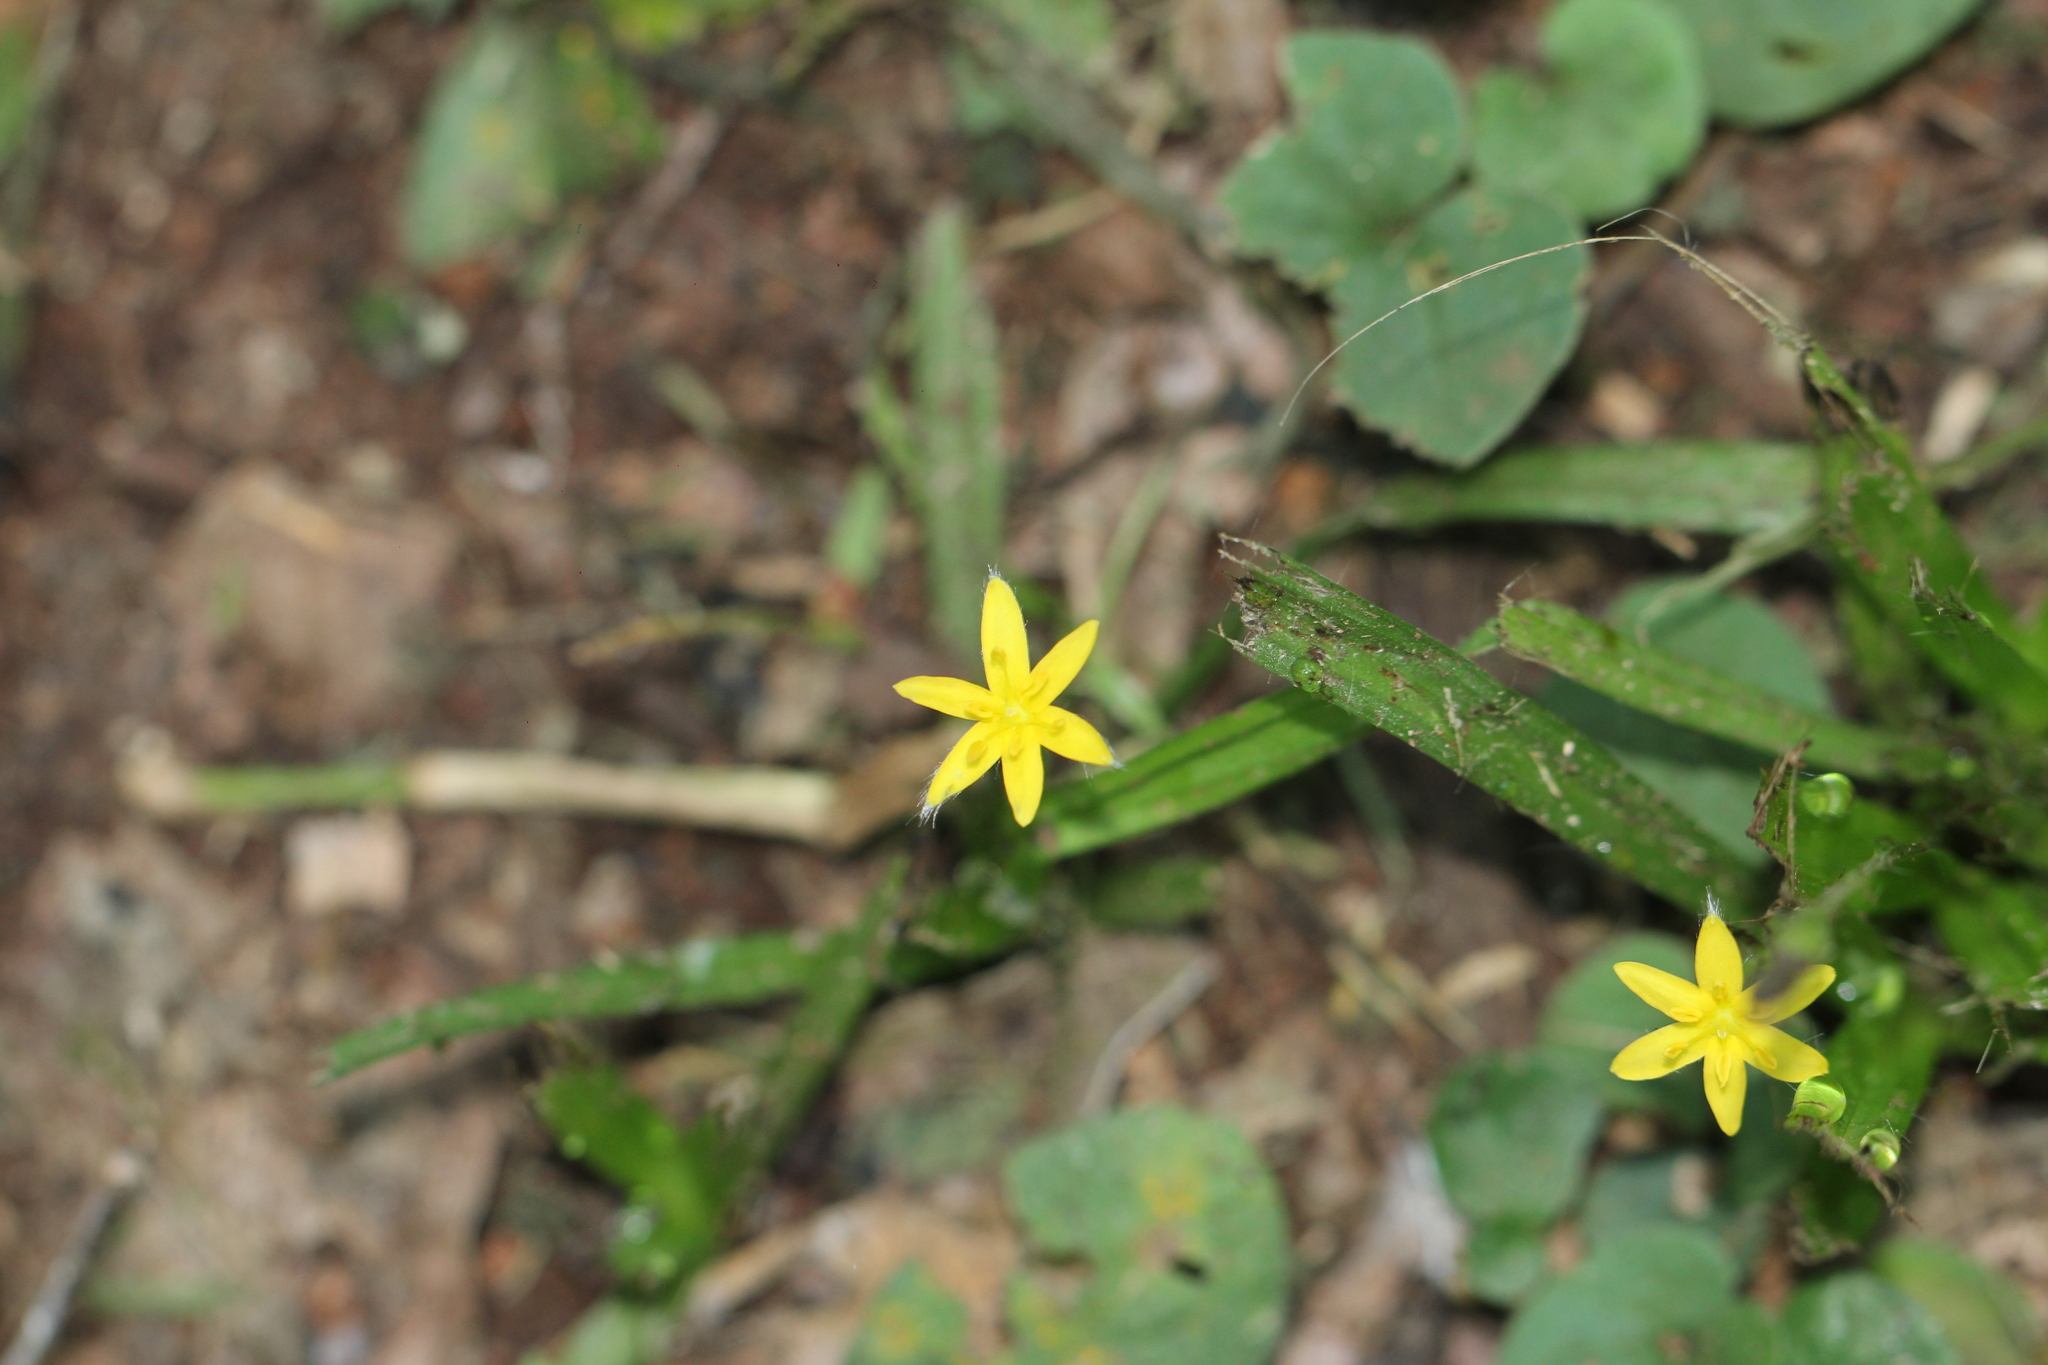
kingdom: Plantae
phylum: Tracheophyta
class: Liliopsida
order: Asparagales
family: Hypoxidaceae
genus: Hypoxis
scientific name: Hypoxis decumbens
